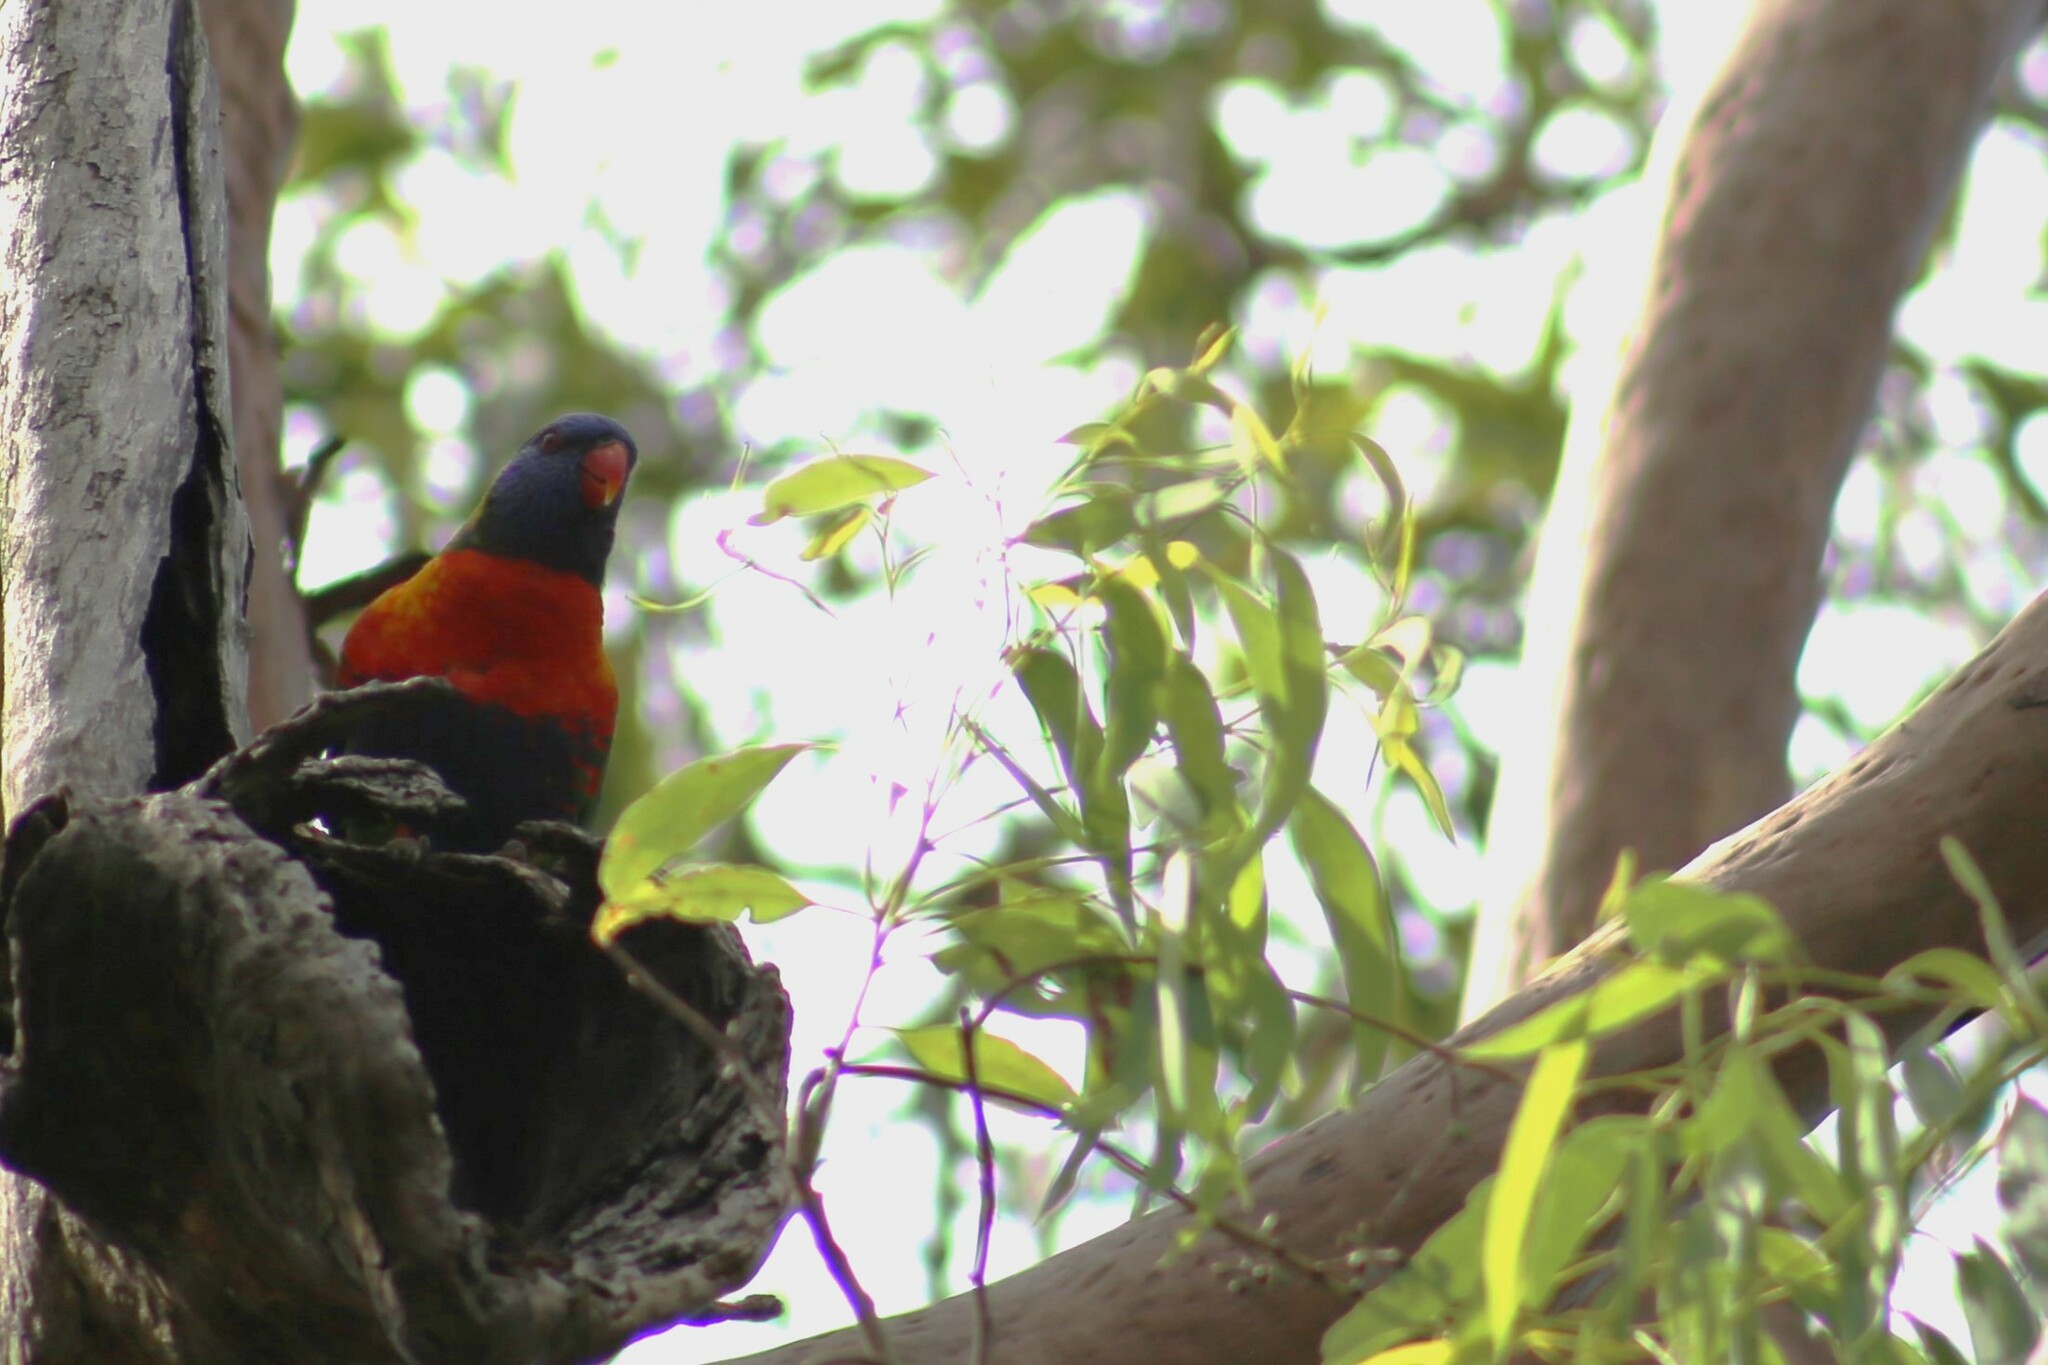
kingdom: Animalia
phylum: Chordata
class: Aves
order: Psittaciformes
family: Psittacidae
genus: Trichoglossus
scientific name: Trichoglossus haematodus
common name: Coconut lorikeet
